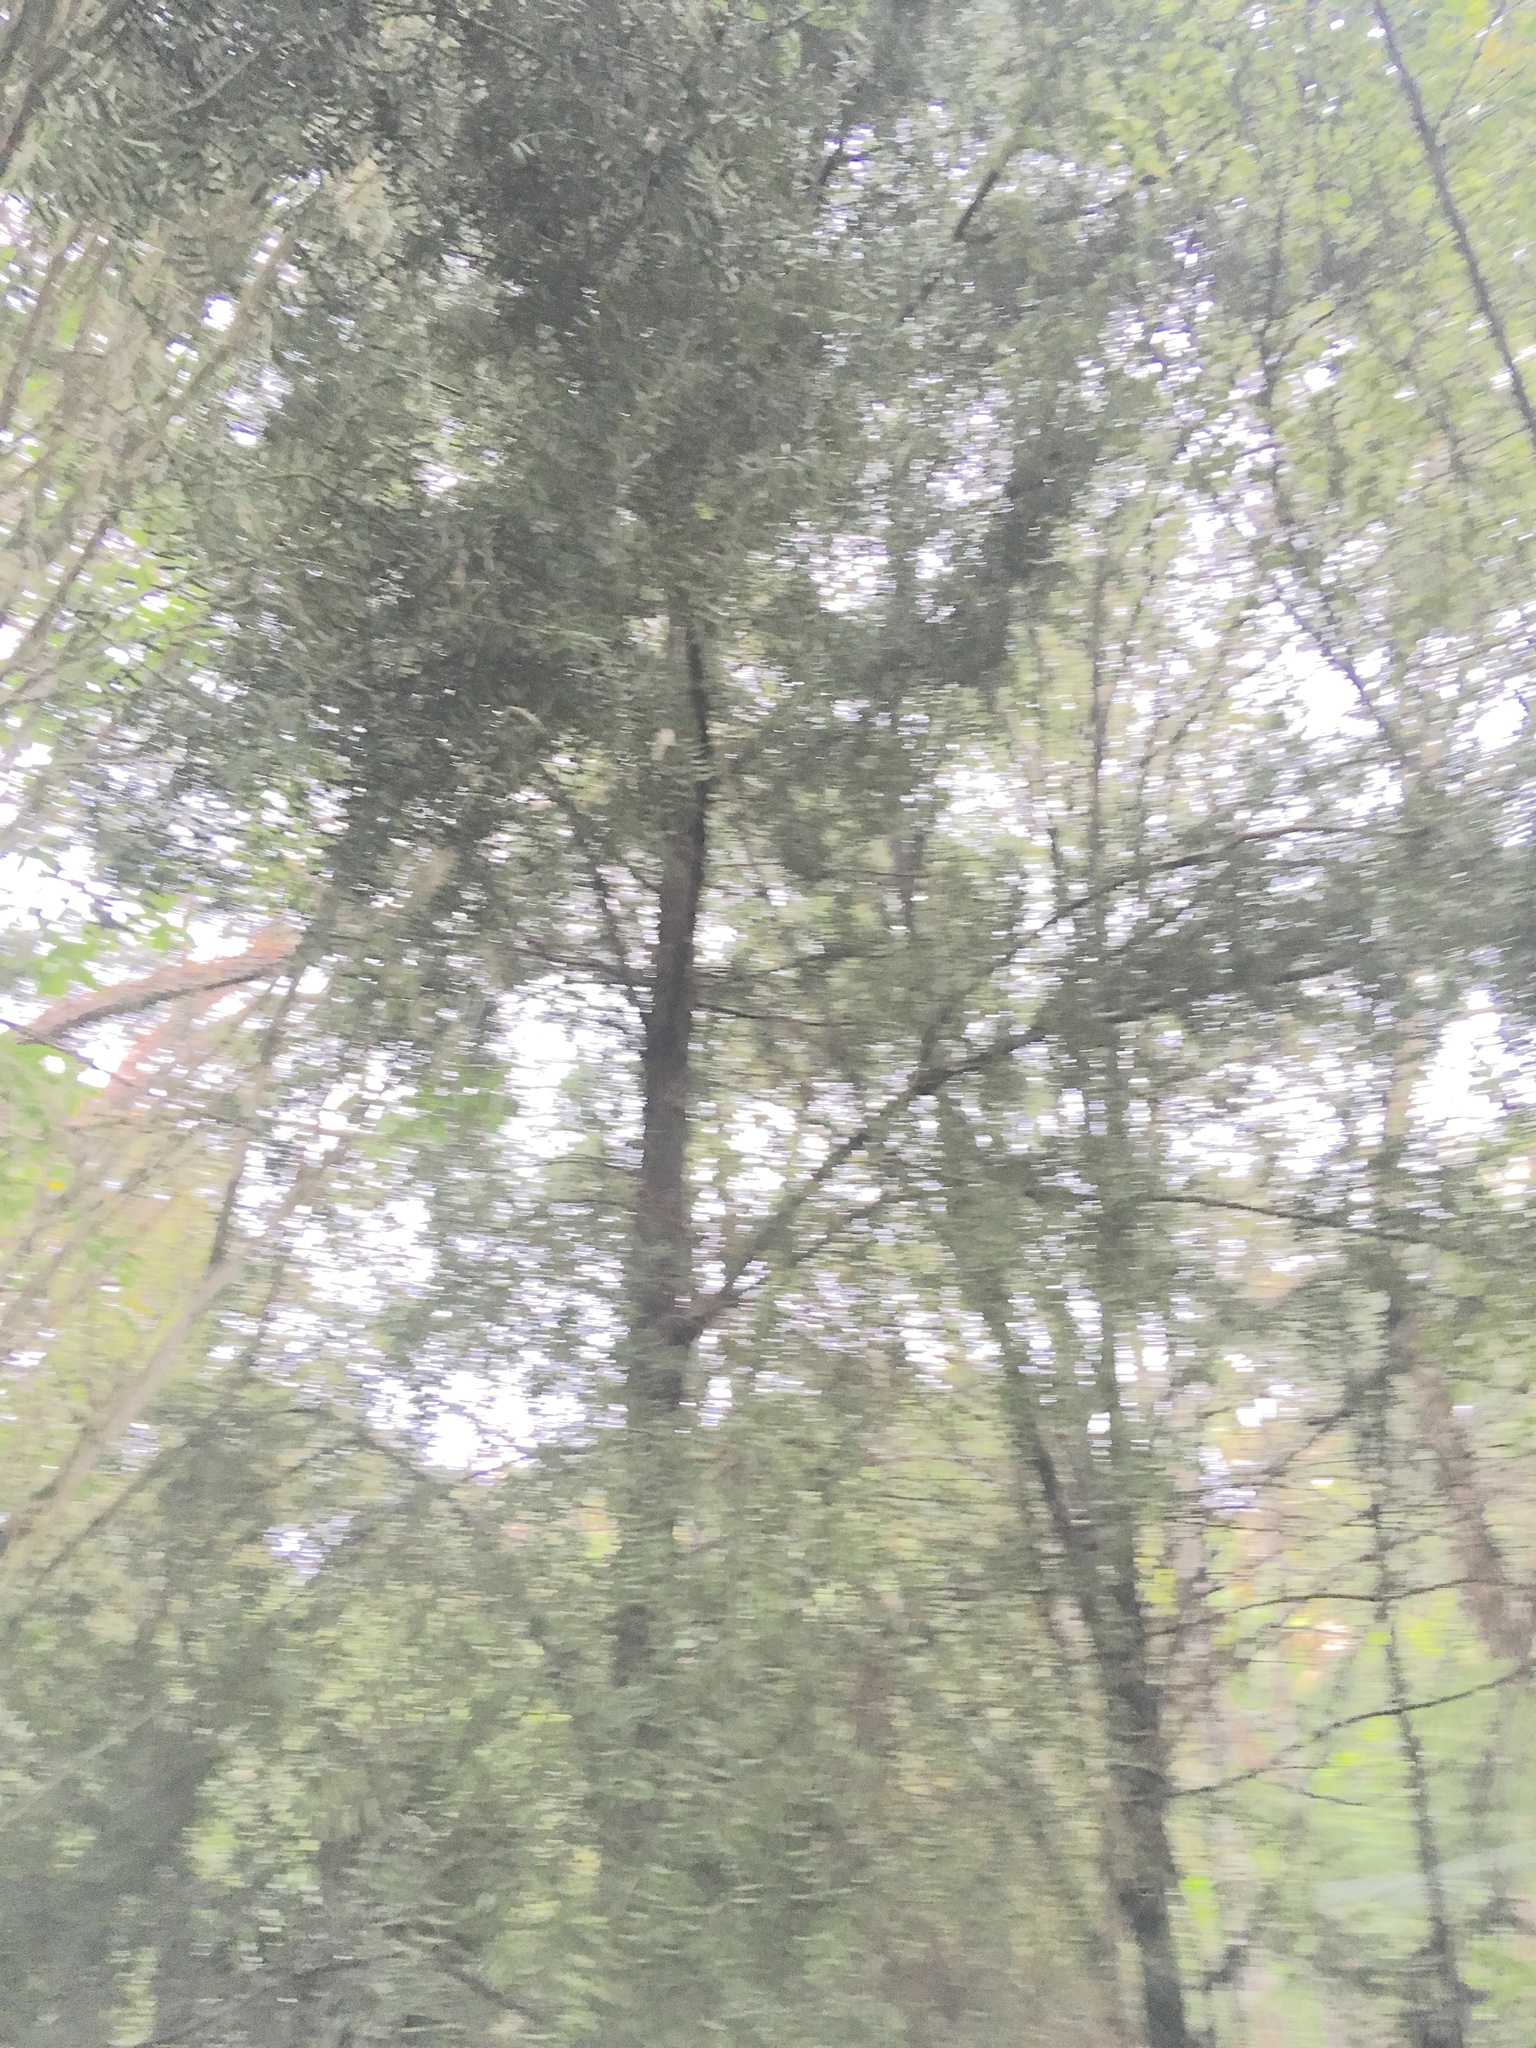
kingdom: Plantae
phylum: Tracheophyta
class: Pinopsida
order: Pinales
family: Podocarpaceae
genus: Podocarpus
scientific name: Podocarpus totara
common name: Totara
